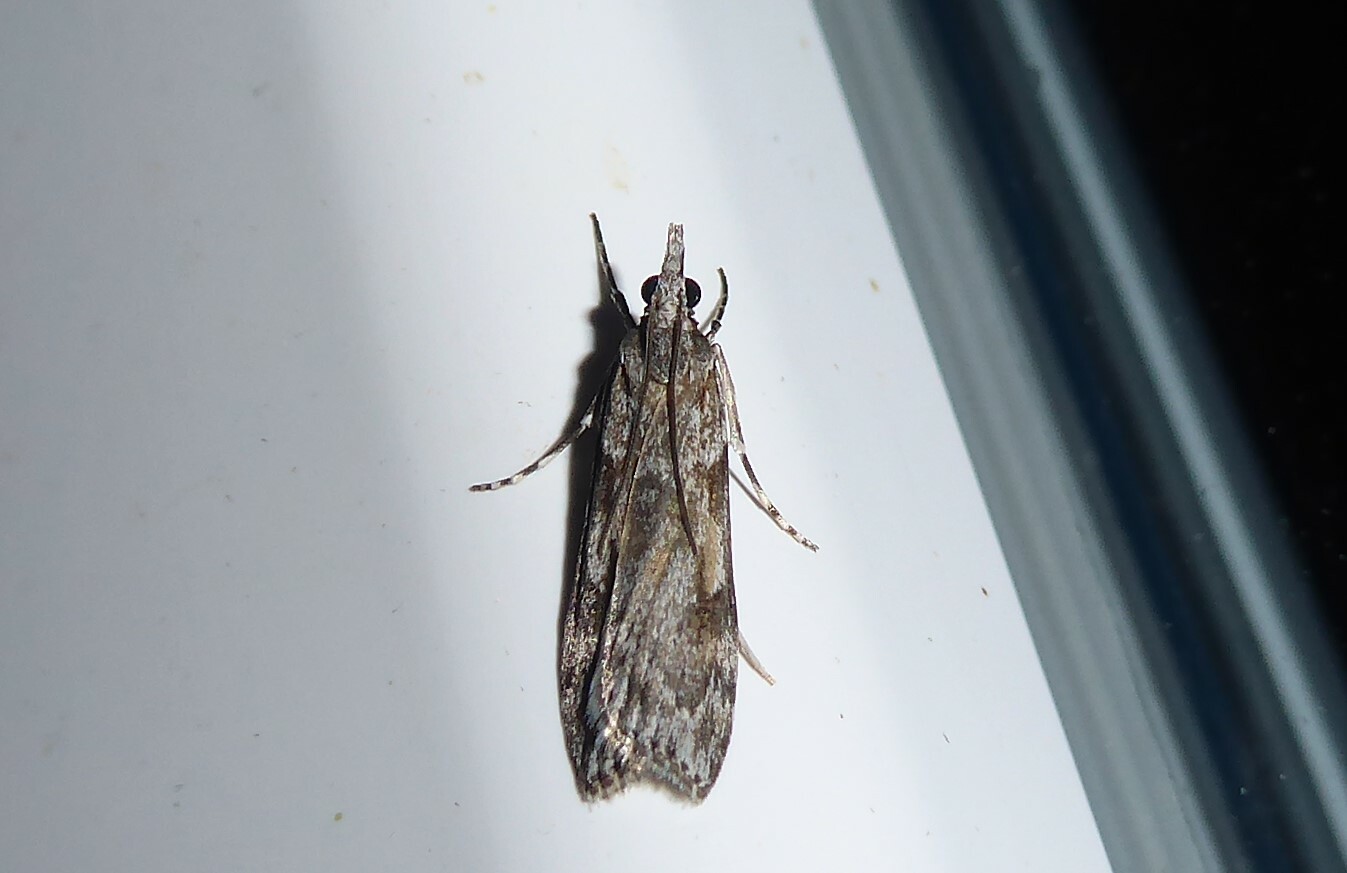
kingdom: Animalia
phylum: Arthropoda
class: Insecta
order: Lepidoptera
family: Crambidae
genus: Scoparia
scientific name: Scoparia halopis
